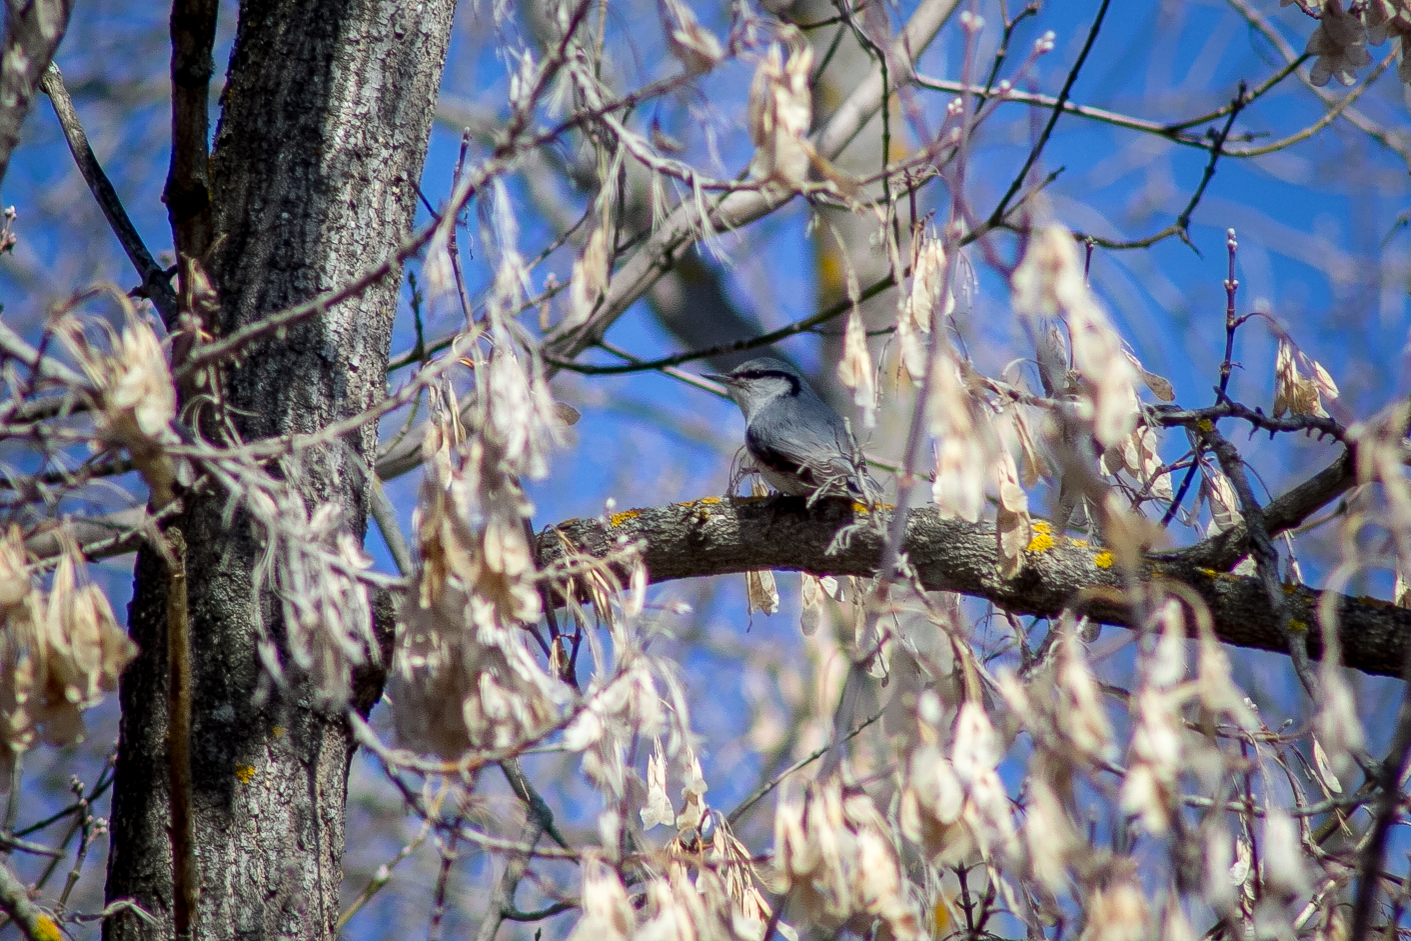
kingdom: Animalia
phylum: Chordata
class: Aves
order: Passeriformes
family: Sittidae
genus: Sitta
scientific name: Sitta europaea
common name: Eurasian nuthatch
